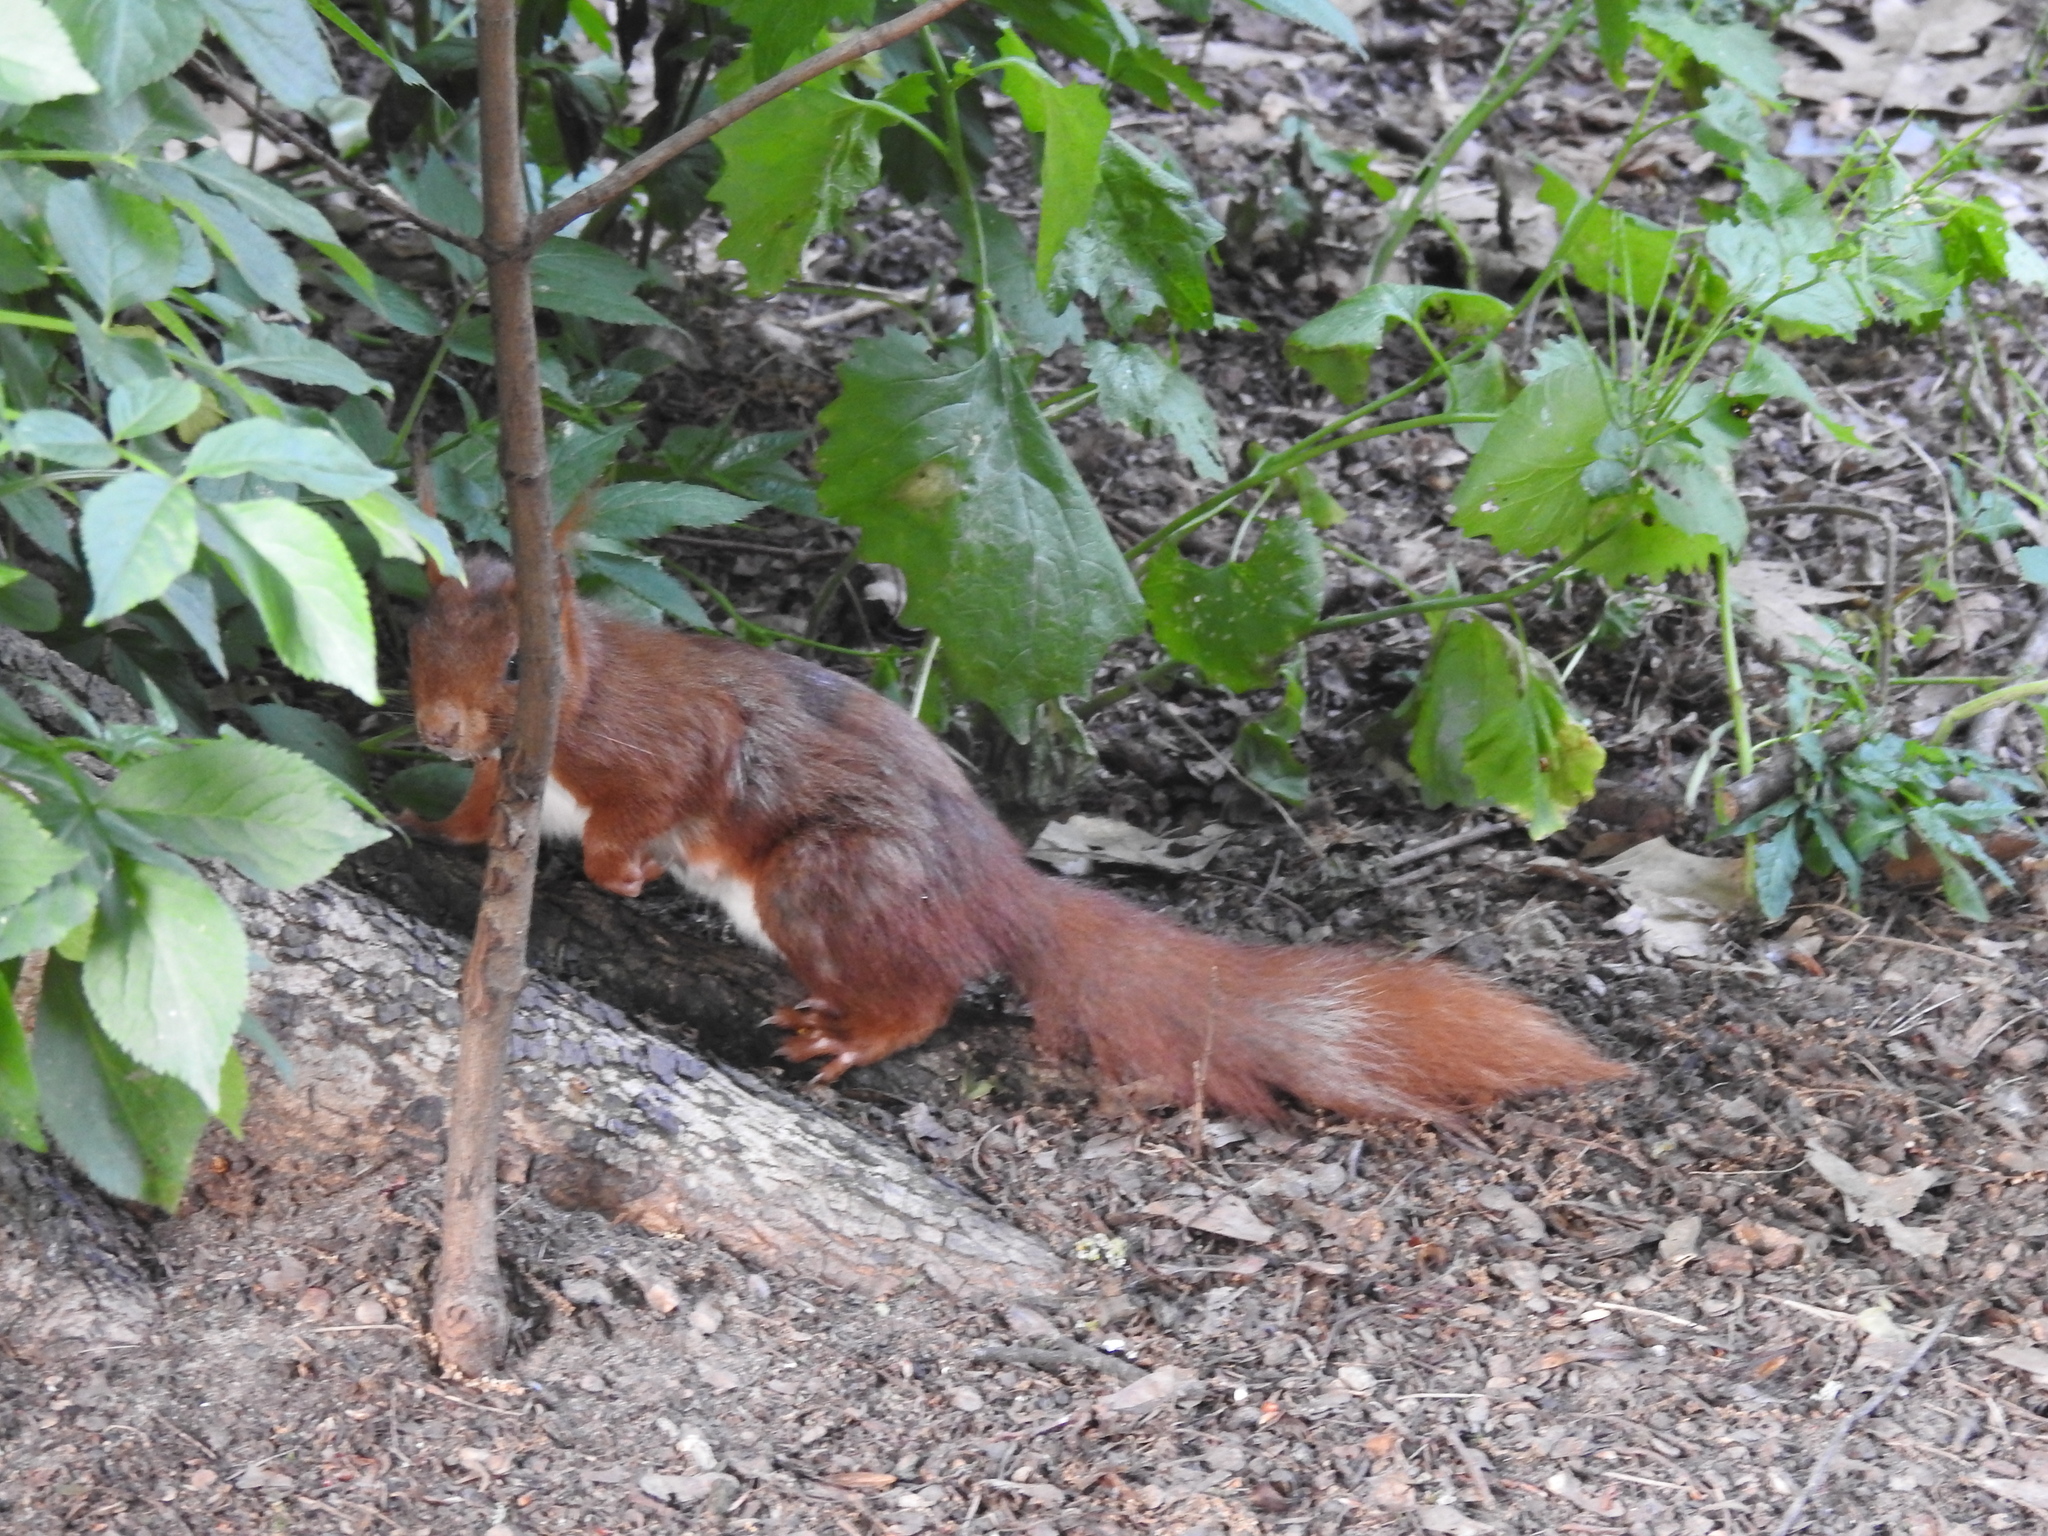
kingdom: Animalia
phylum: Chordata
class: Mammalia
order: Rodentia
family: Sciuridae
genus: Sciurus
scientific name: Sciurus vulgaris
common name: Eurasian red squirrel
